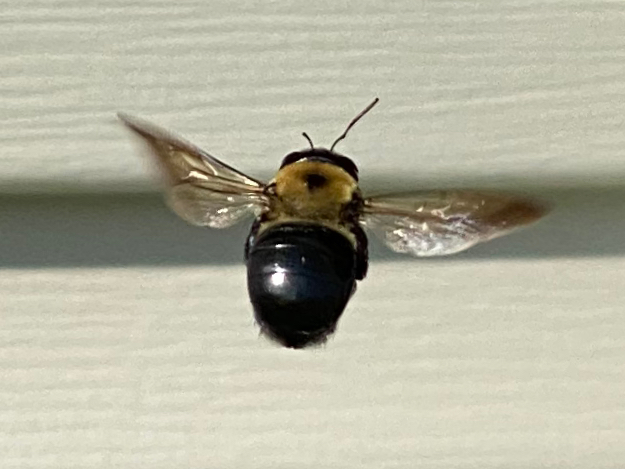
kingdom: Animalia
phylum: Arthropoda
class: Insecta
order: Hymenoptera
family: Apidae
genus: Xylocopa
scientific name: Xylocopa virginica
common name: Carpenter bee
